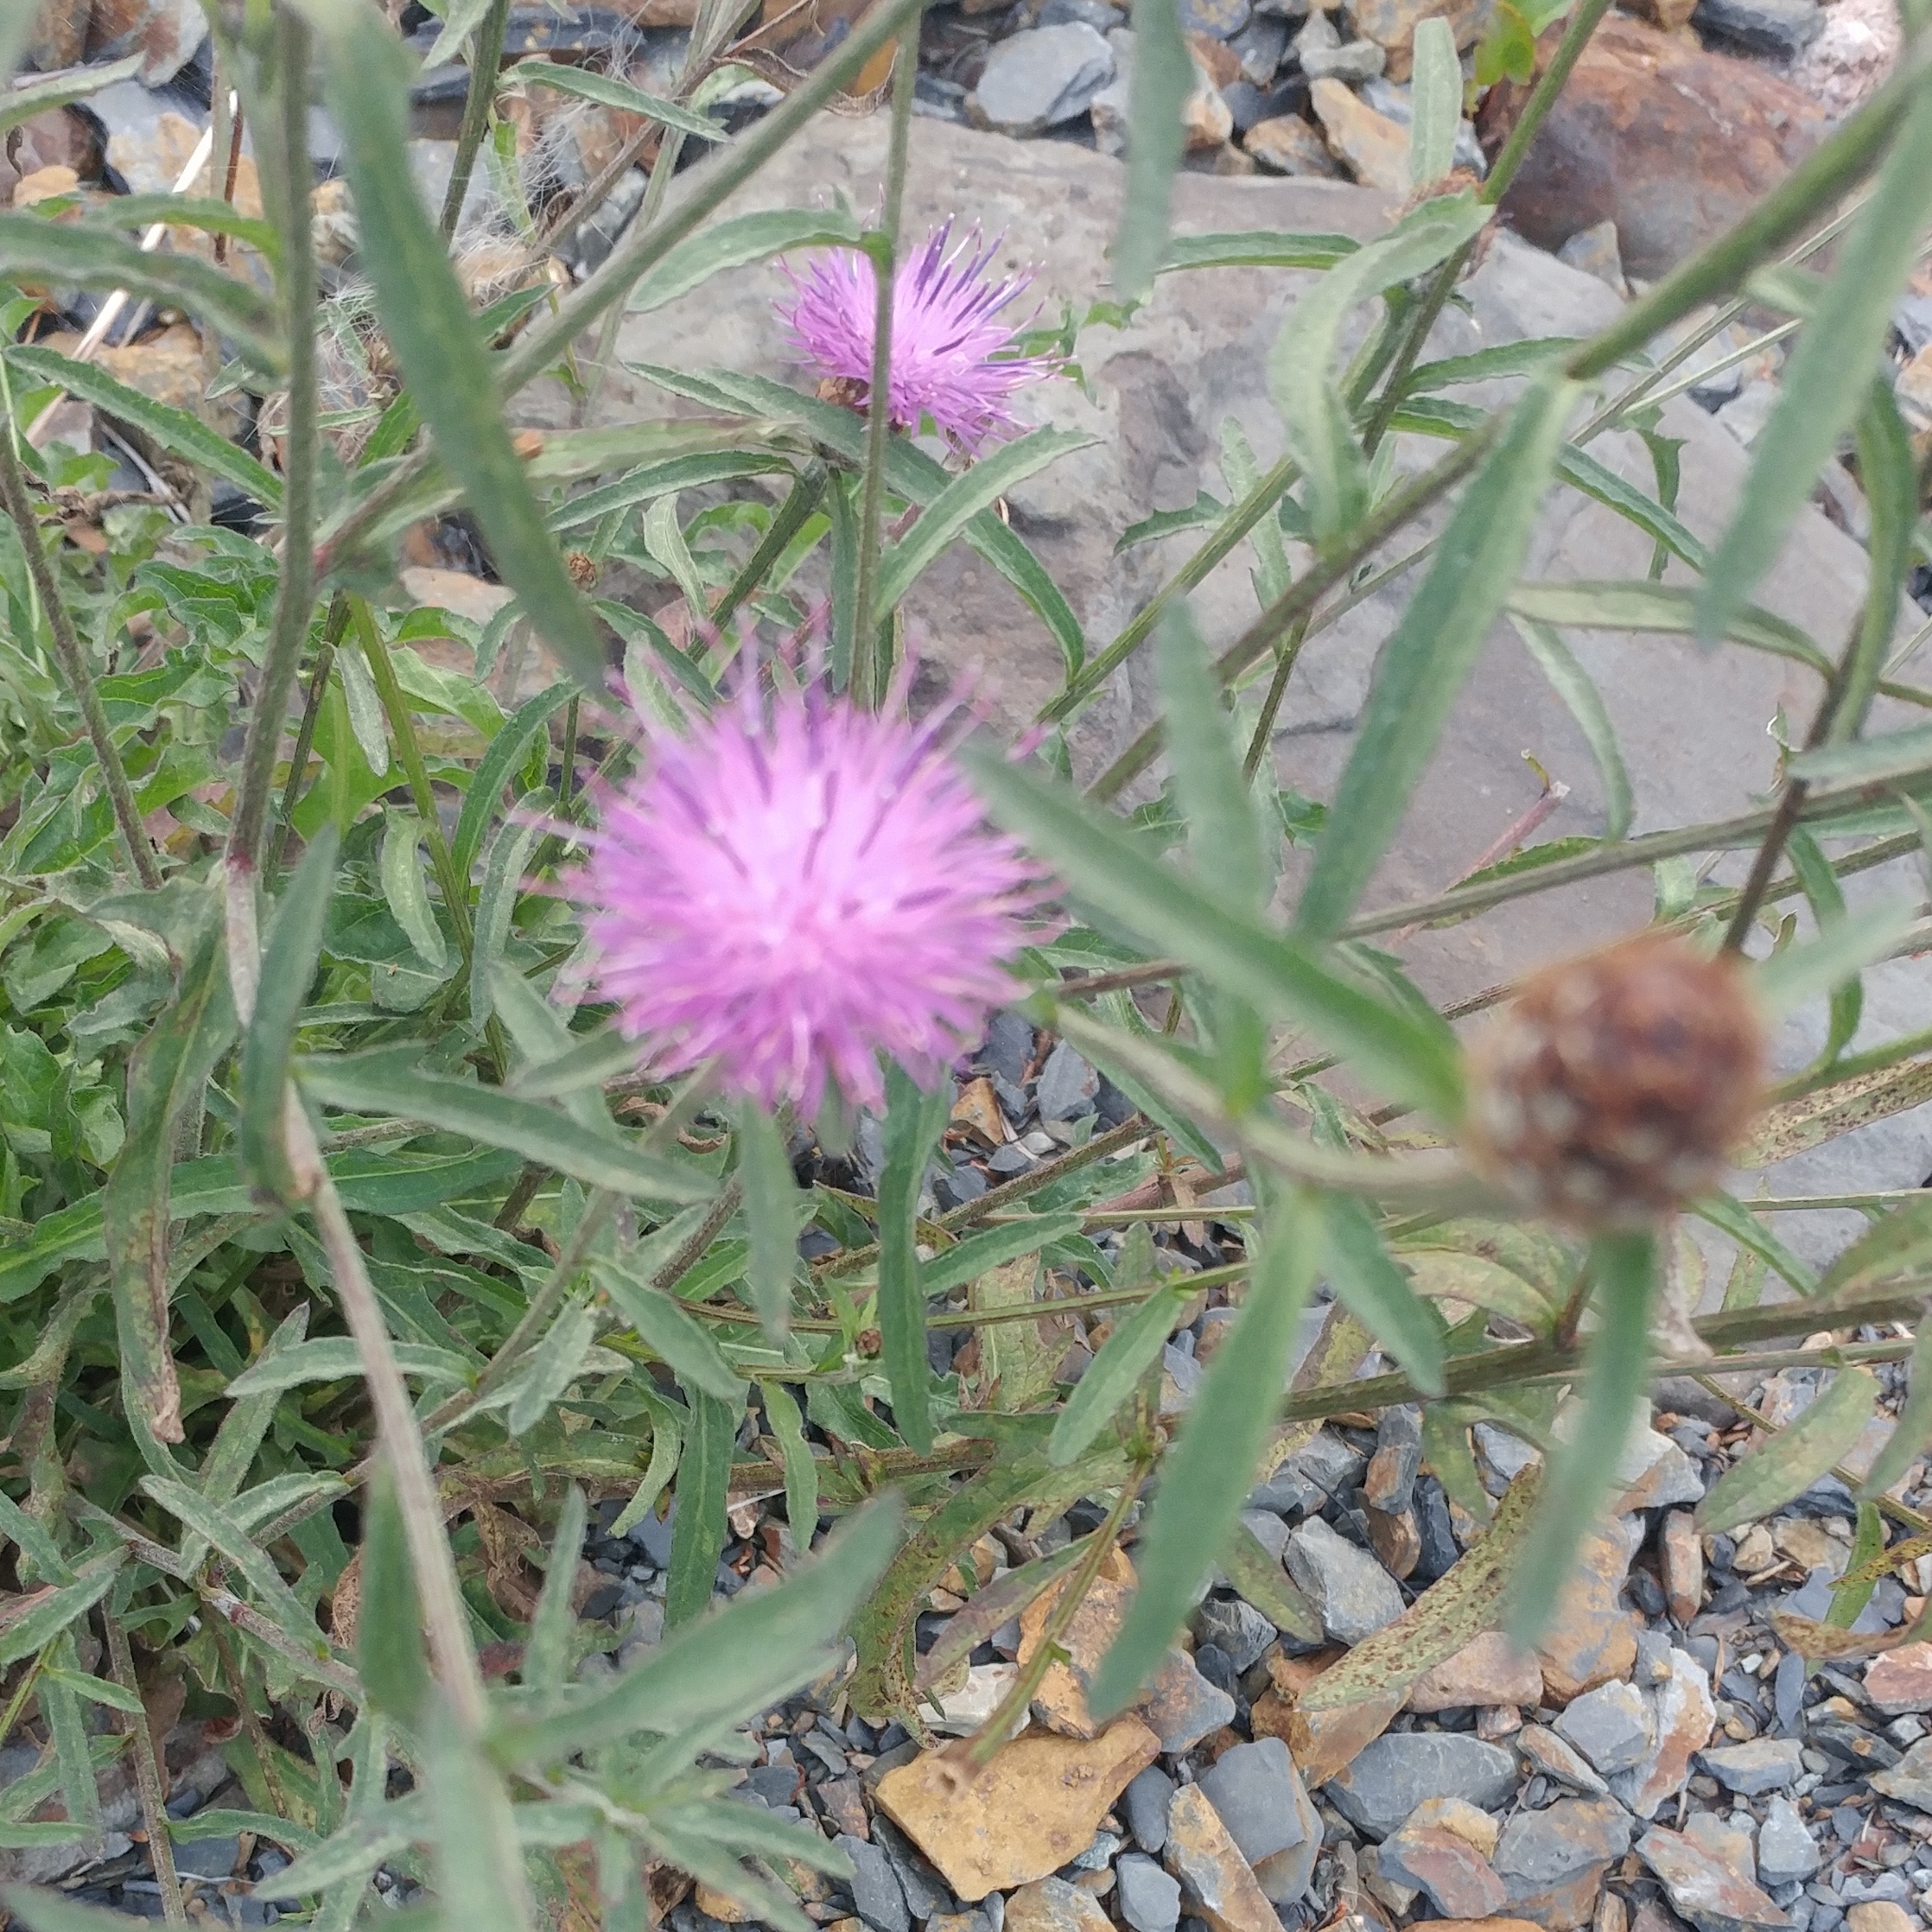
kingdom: Plantae
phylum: Tracheophyta
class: Magnoliopsida
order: Asterales
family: Asteraceae
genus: Centaurea
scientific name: Centaurea nigra
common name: Lesser knapweed
